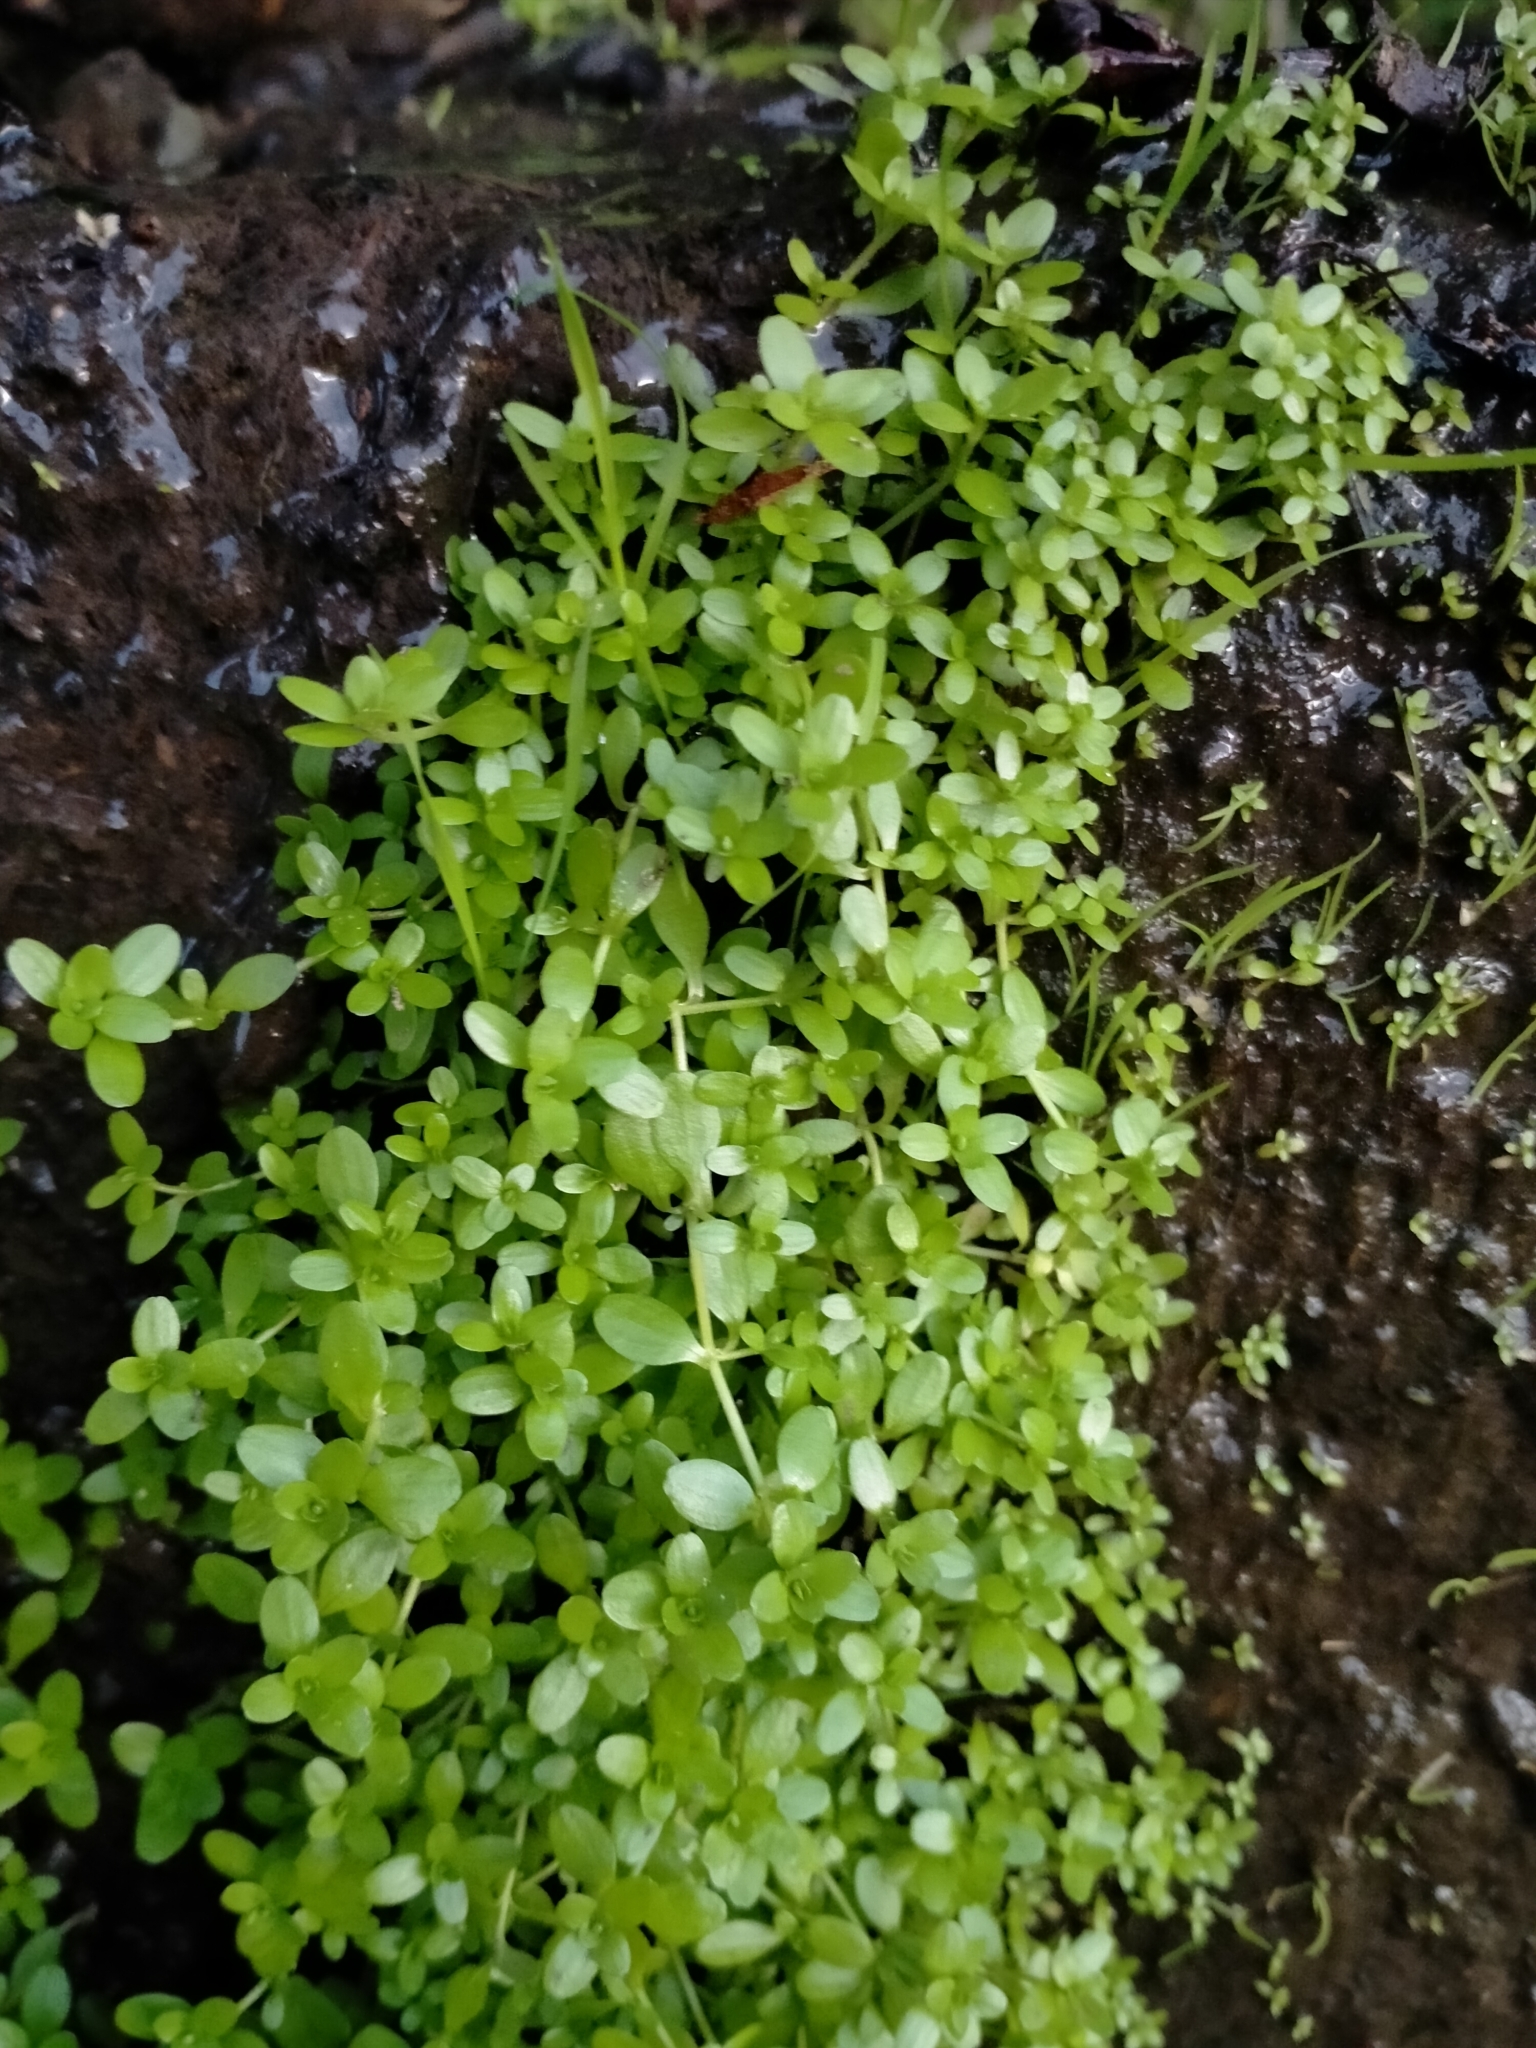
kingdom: Plantae
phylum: Tracheophyta
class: Magnoliopsida
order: Lamiales
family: Plantaginaceae
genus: Callitriche
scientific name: Callitriche stagnalis
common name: Common water-starwort
